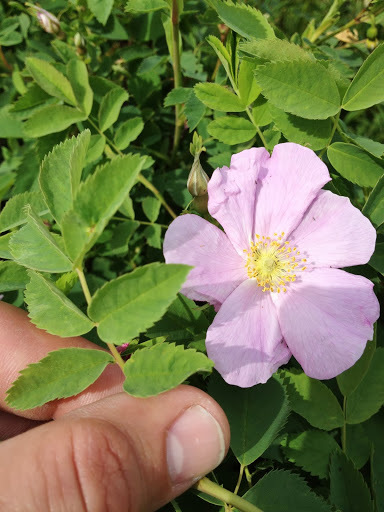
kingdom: Plantae
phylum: Tracheophyta
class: Magnoliopsida
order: Rosales
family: Rosaceae
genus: Rosa
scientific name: Rosa nutkana
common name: Nootka rose
